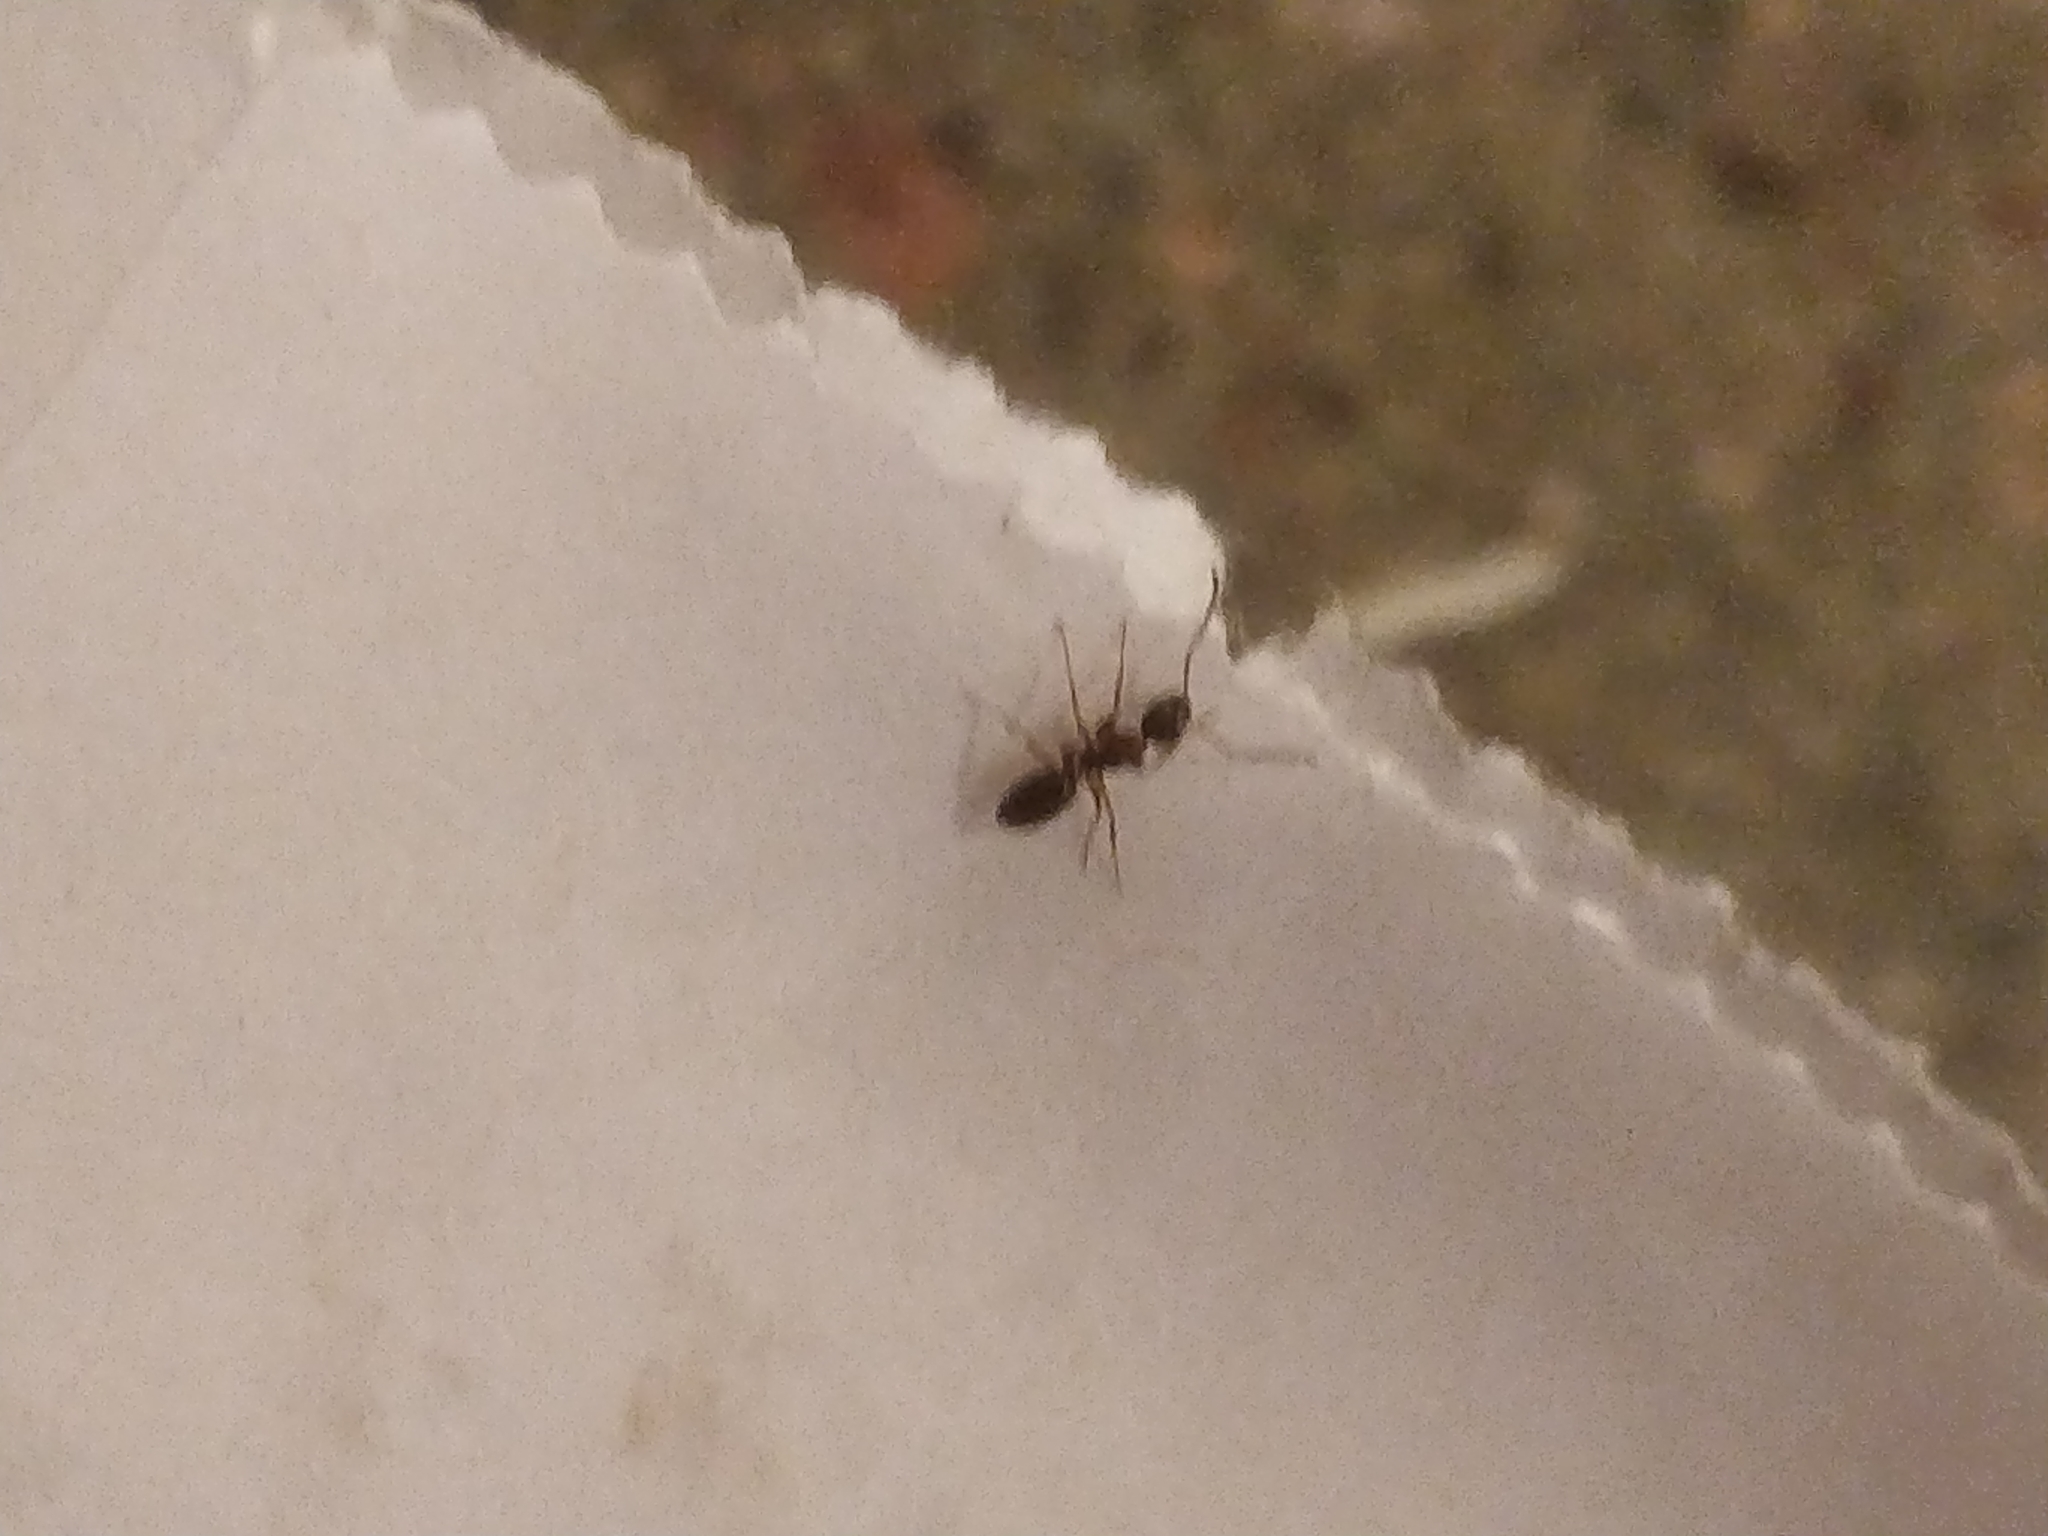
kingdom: Animalia
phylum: Arthropoda
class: Insecta
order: Hymenoptera
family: Formicidae
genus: Camponotus
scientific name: Camponotus nearcticus
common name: Smaller carpenter ant
